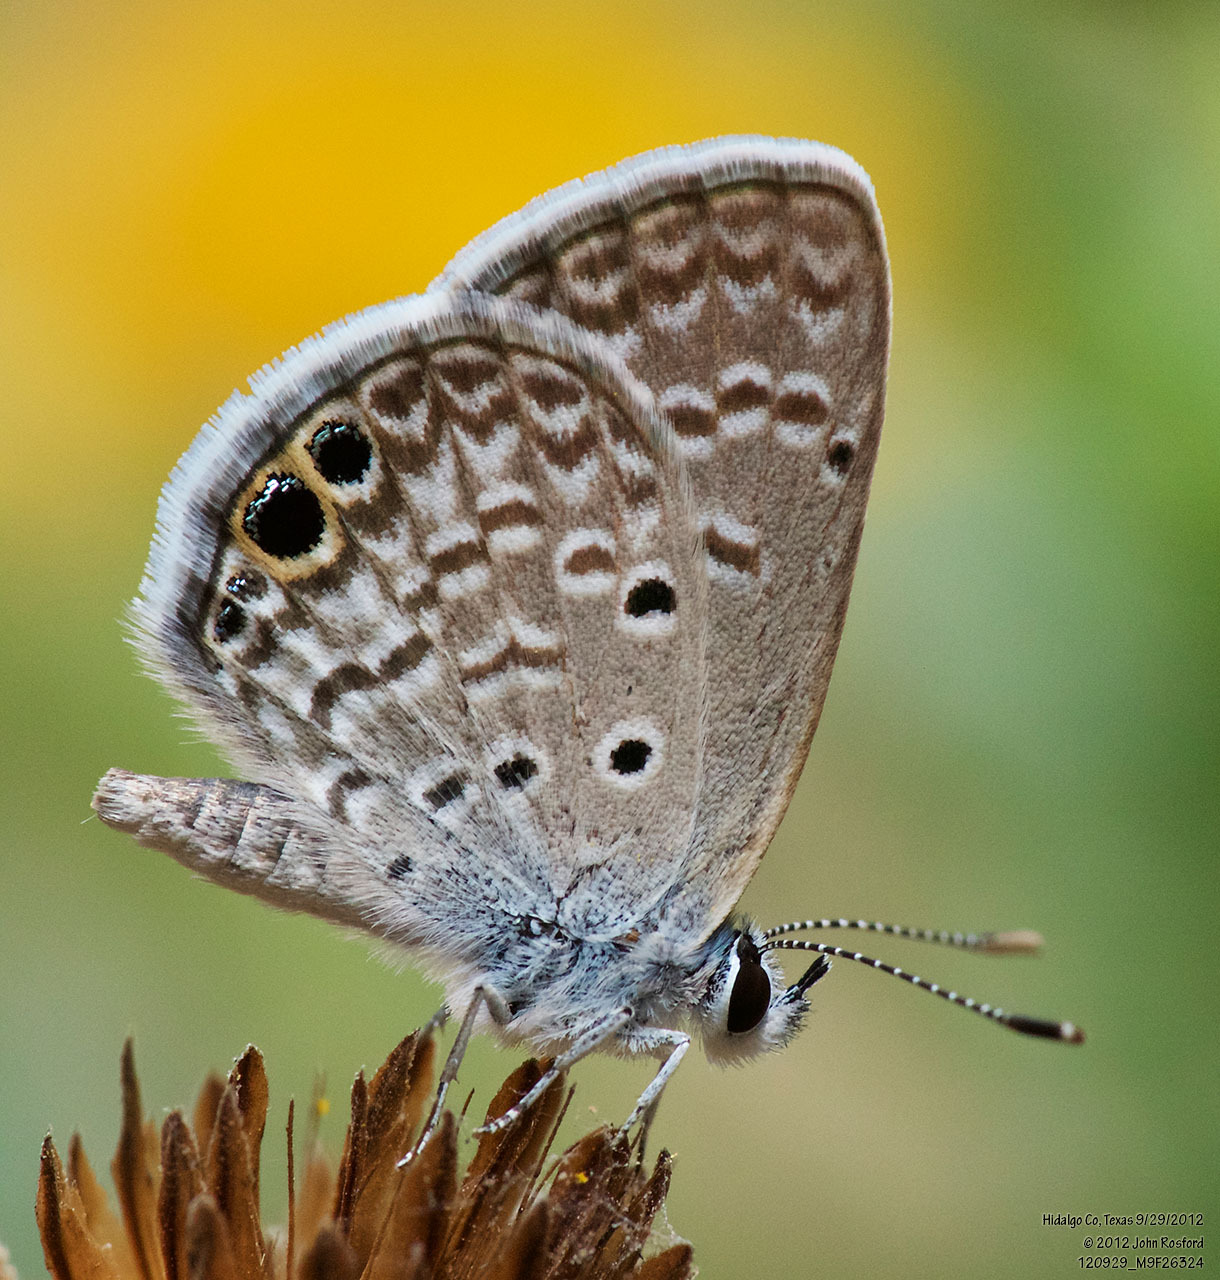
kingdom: Animalia
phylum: Arthropoda
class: Insecta
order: Lepidoptera
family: Lycaenidae
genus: Hemiargus
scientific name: Hemiargus ceraunus
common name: Ceraunus blue
